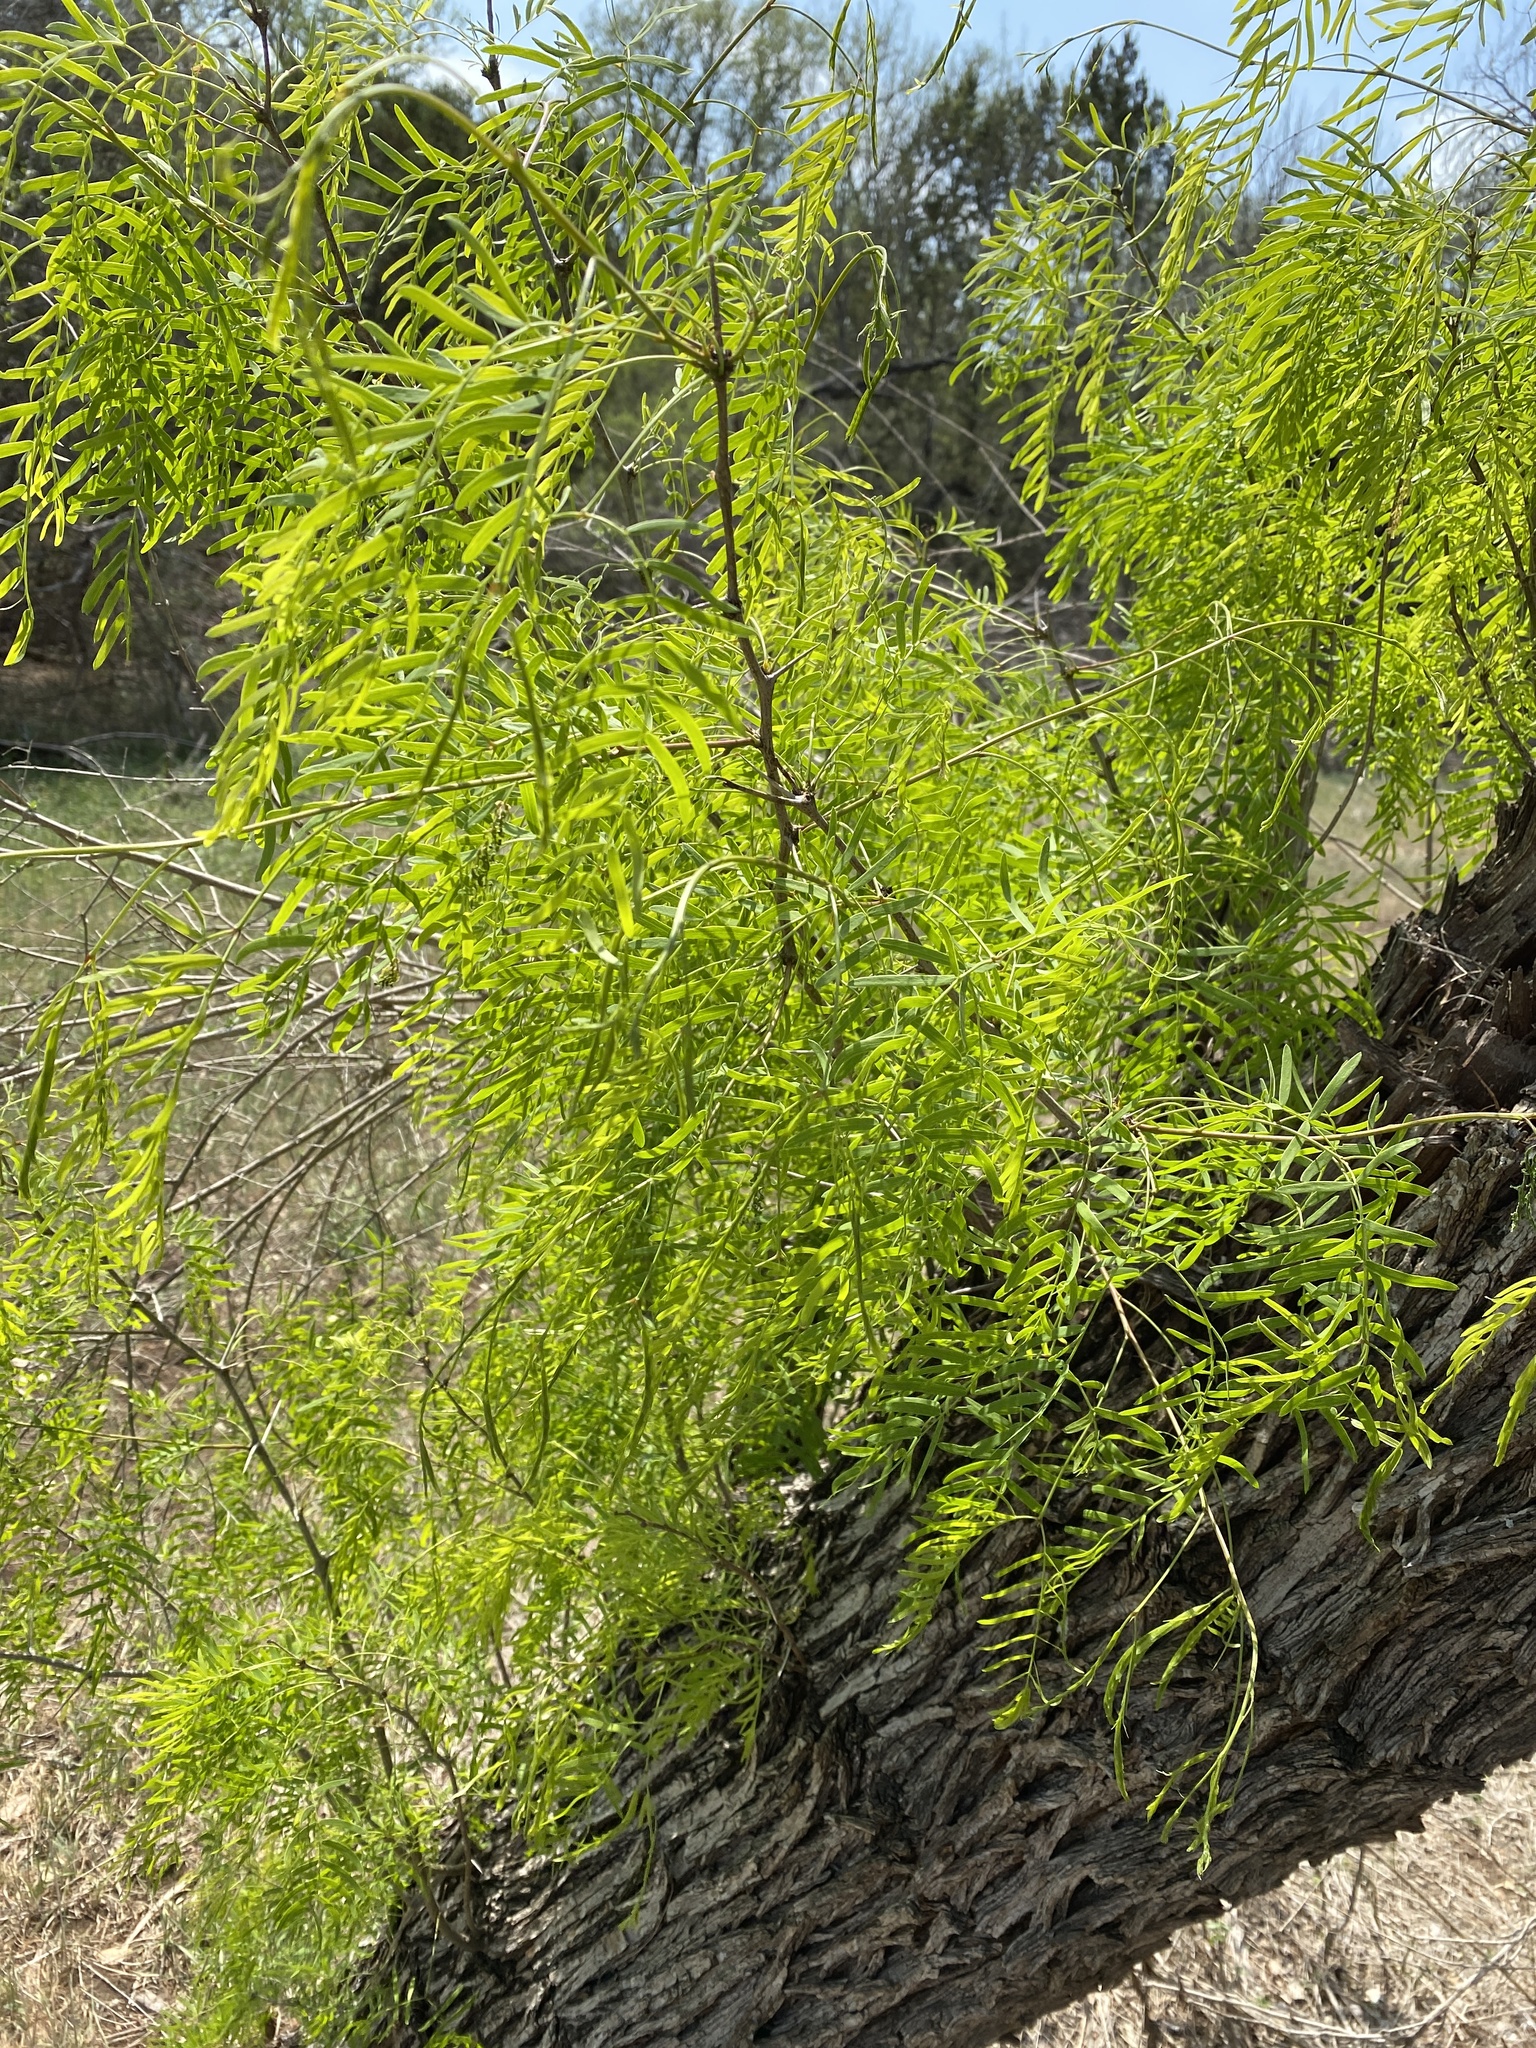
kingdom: Plantae
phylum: Tracheophyta
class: Magnoliopsida
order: Fabales
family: Fabaceae
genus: Prosopis
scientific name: Prosopis glandulosa
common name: Honey mesquite
